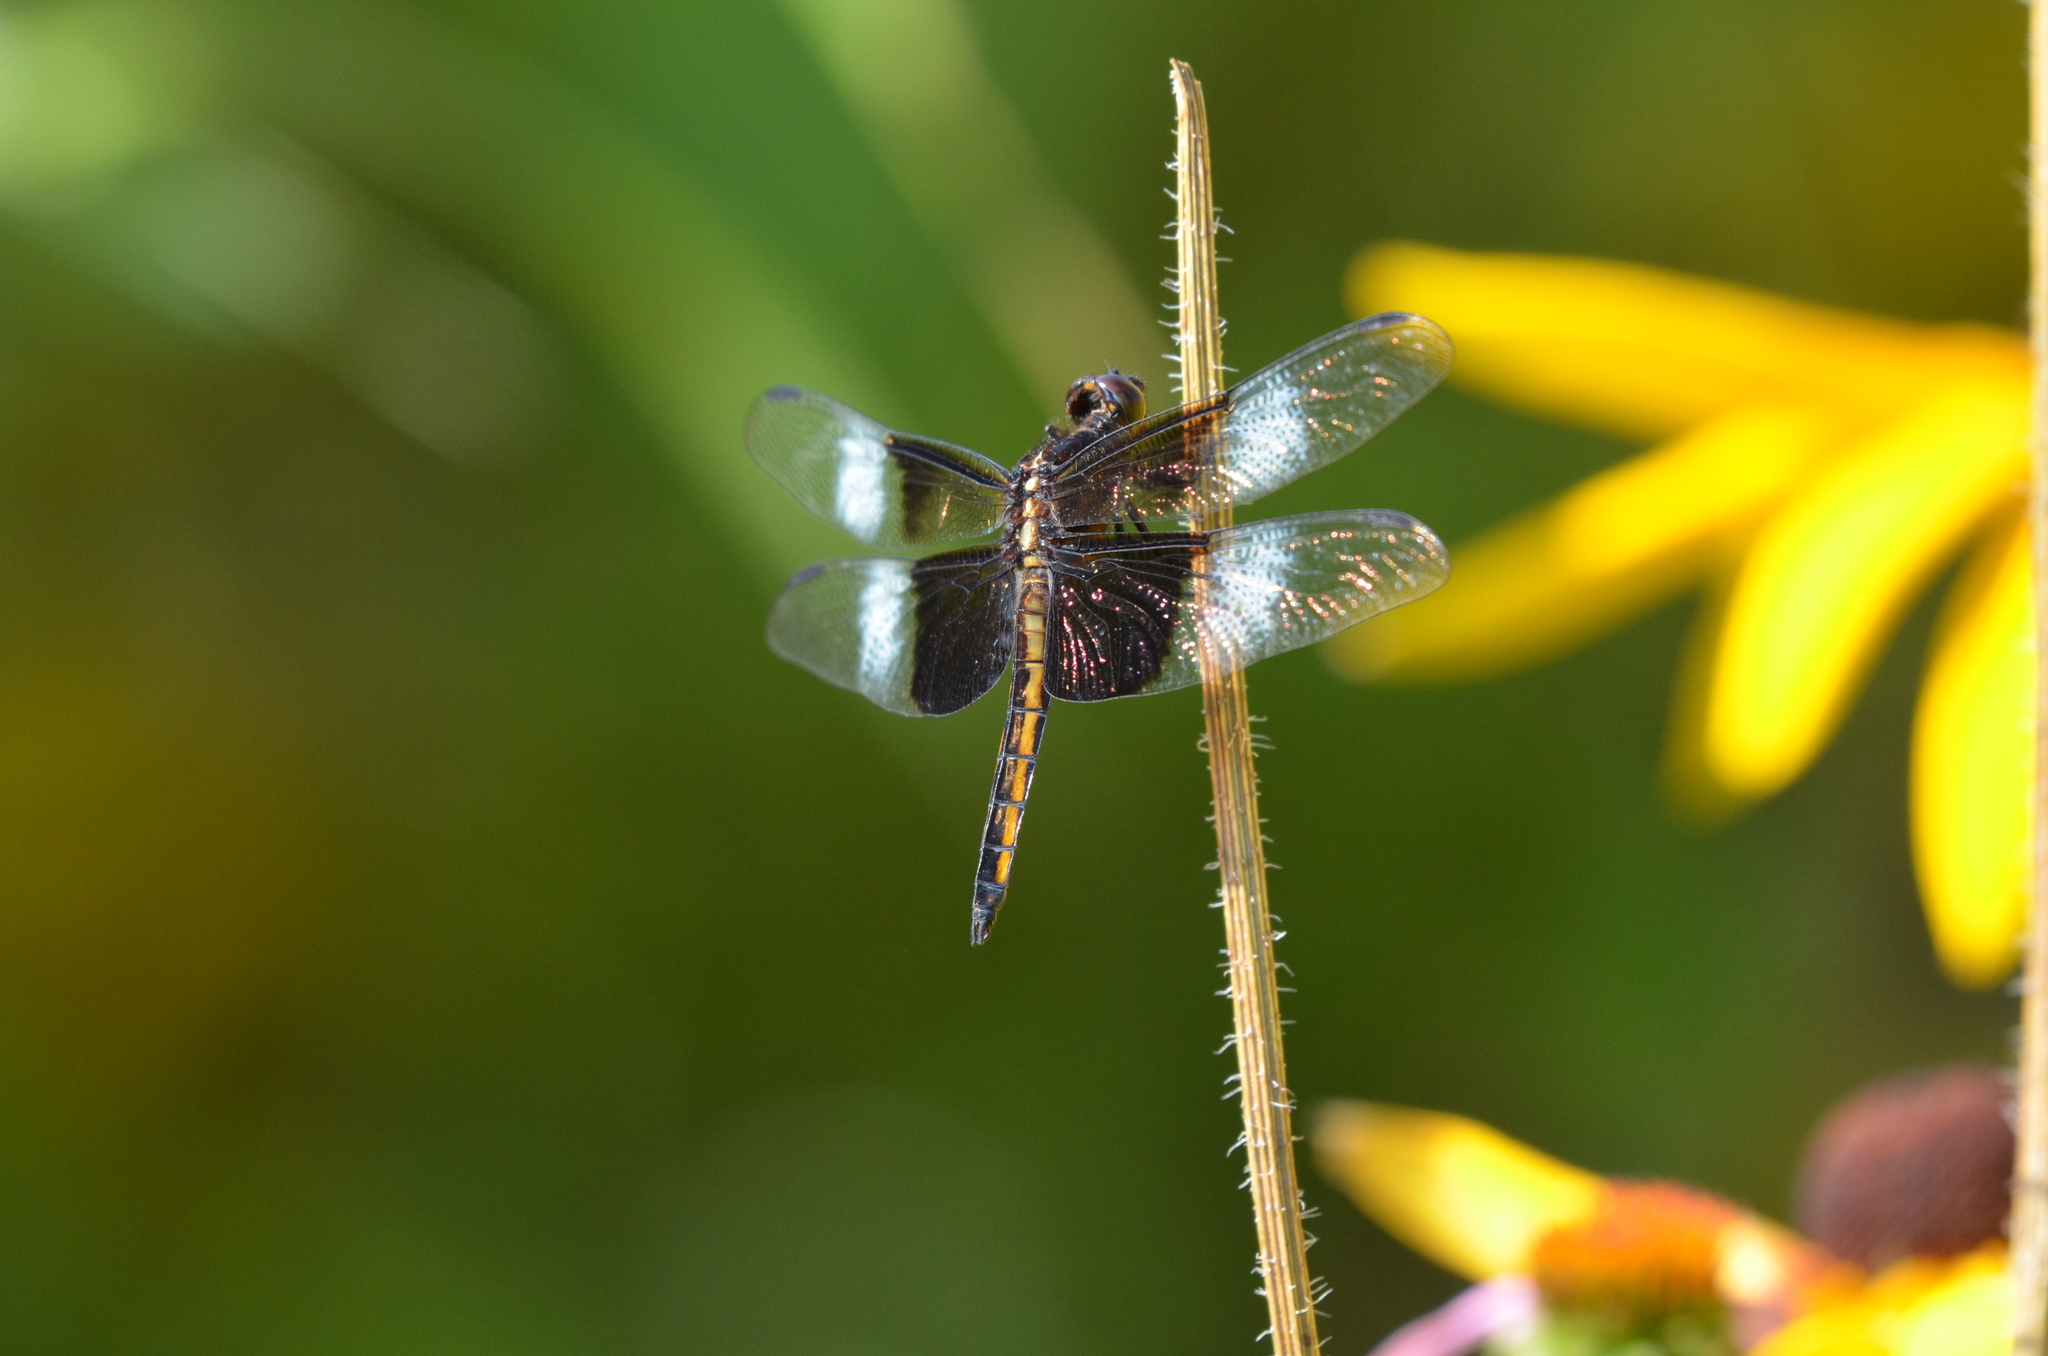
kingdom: Animalia
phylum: Arthropoda
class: Insecta
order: Odonata
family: Libellulidae
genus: Libellula
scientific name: Libellula luctuosa
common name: Widow skimmer
